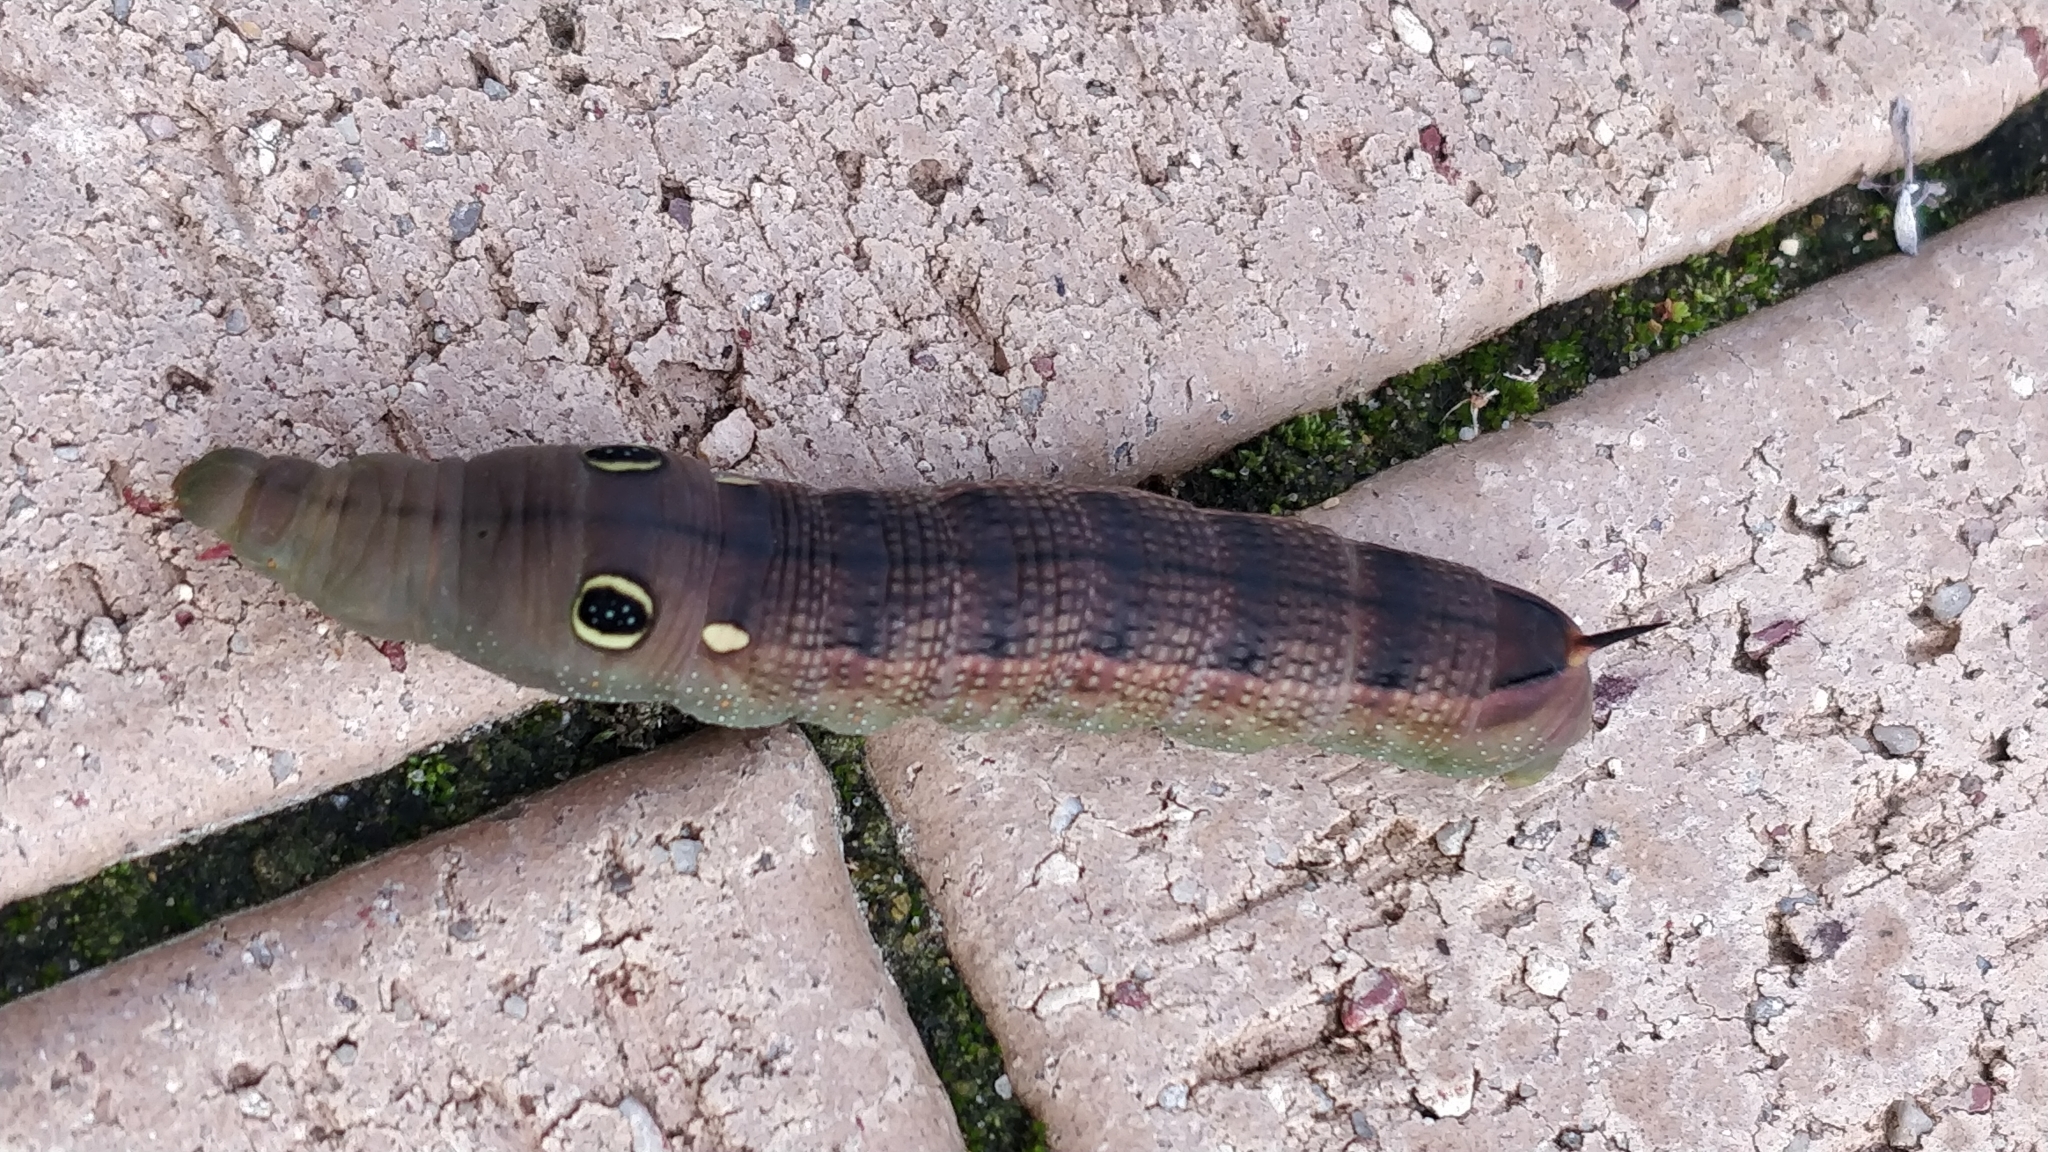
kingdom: Animalia
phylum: Arthropoda
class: Insecta
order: Lepidoptera
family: Sphingidae
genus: Hippotion
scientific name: Hippotion celerio
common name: Silver-striped hawk-moth
